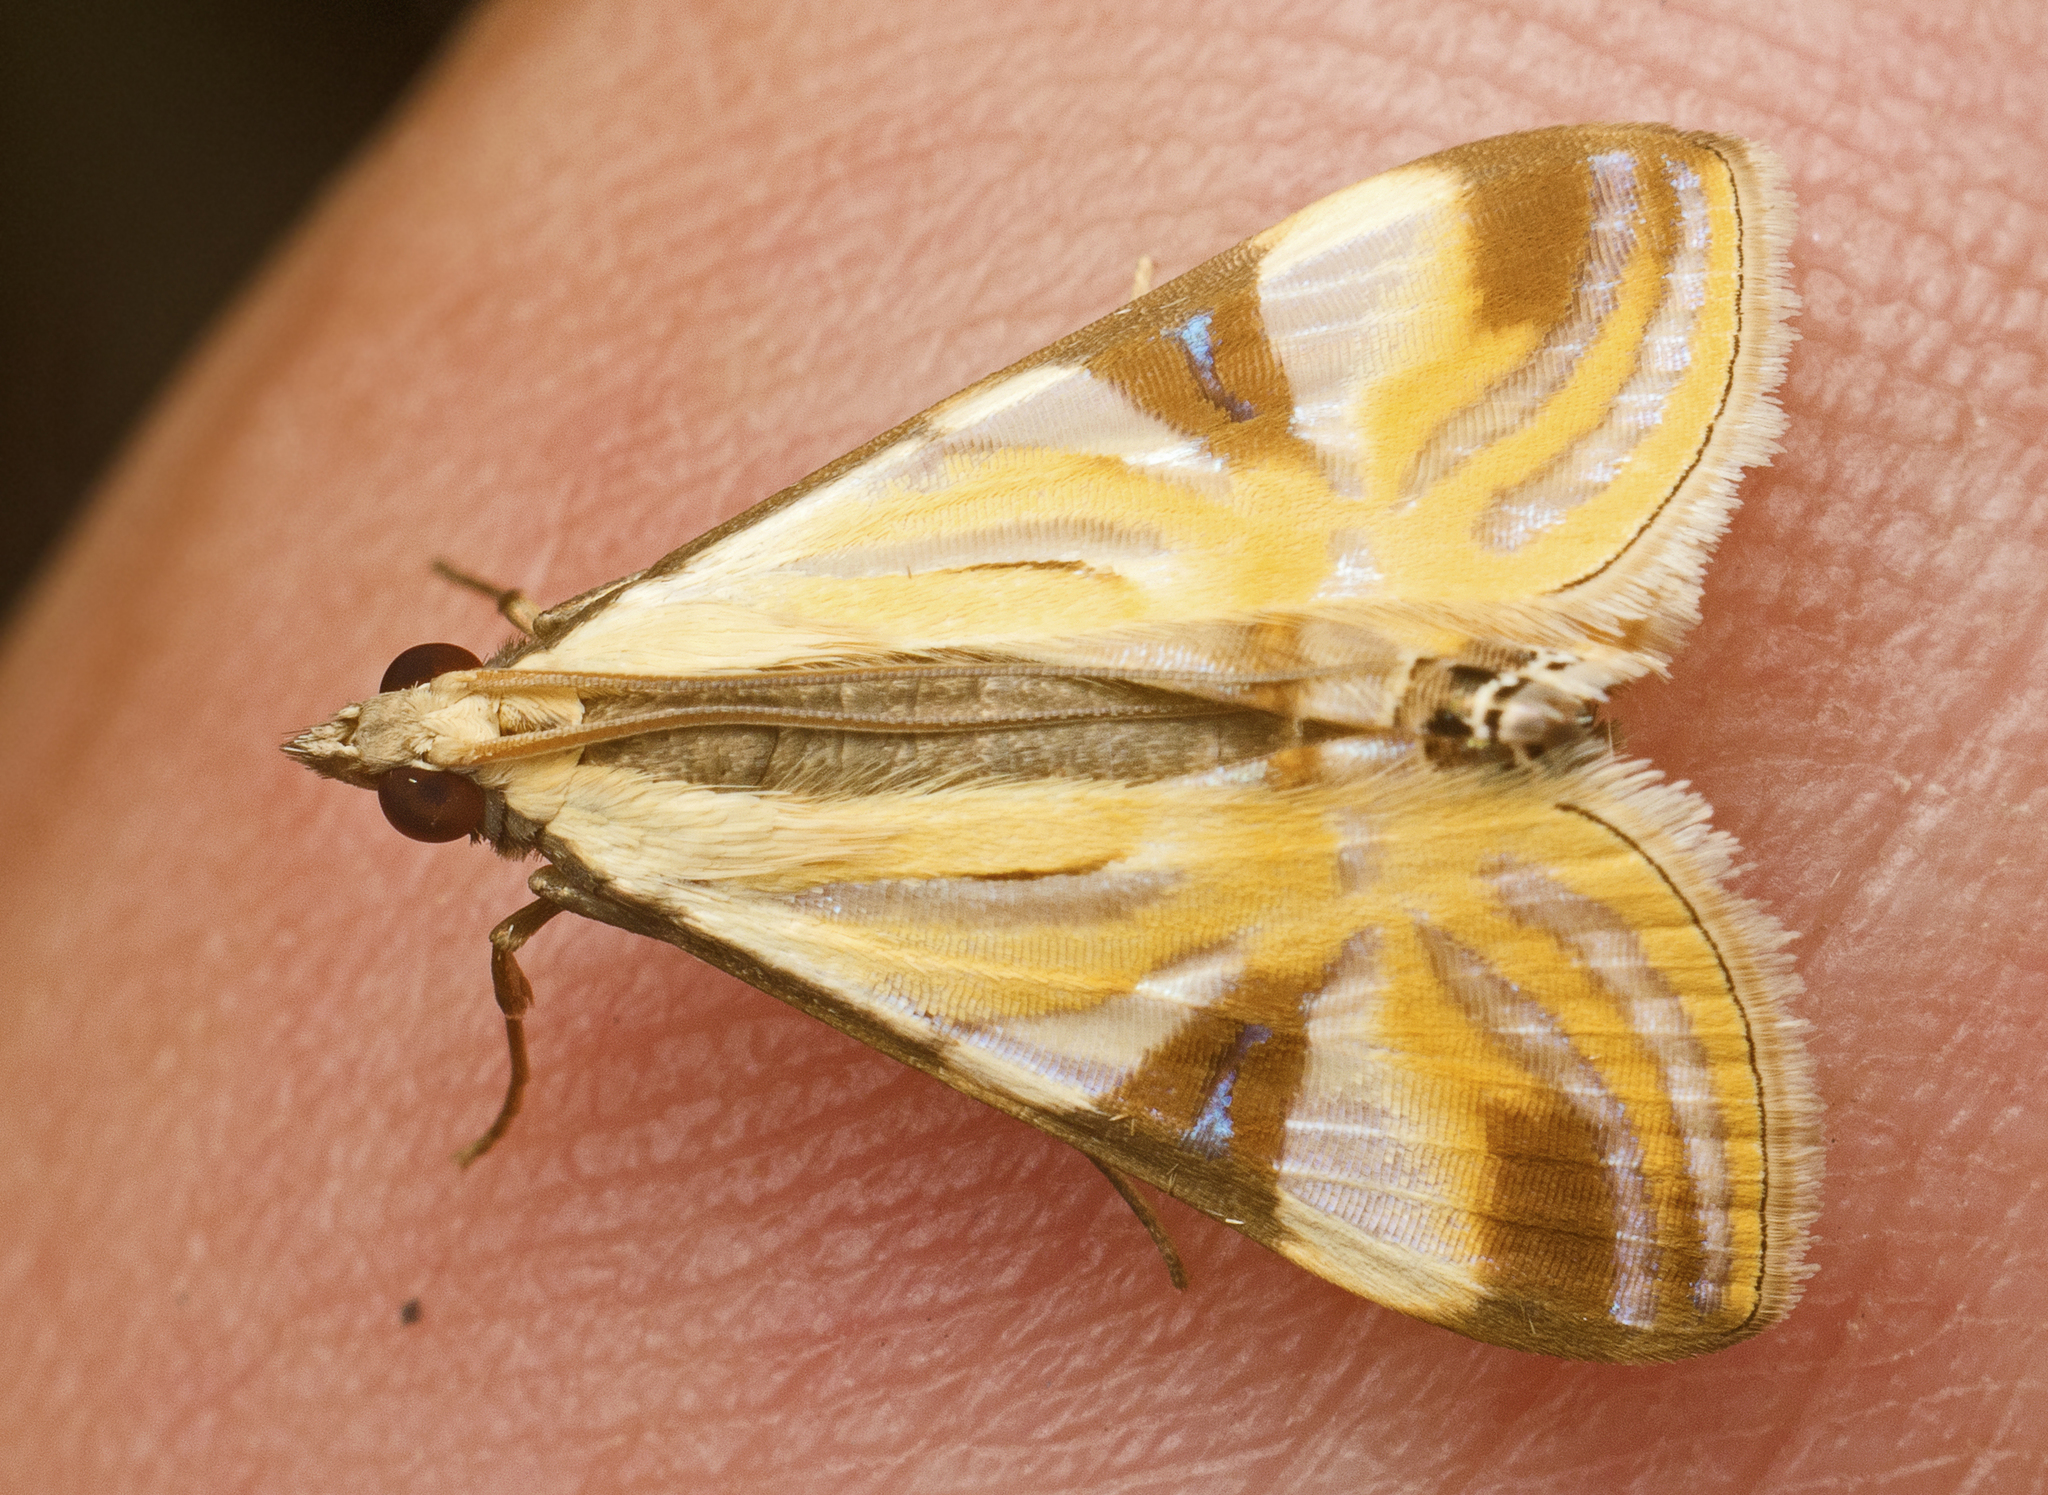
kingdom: Animalia
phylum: Arthropoda
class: Insecta
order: Lepidoptera
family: Crambidae
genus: Talanga
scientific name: Talanga tolumnialis
